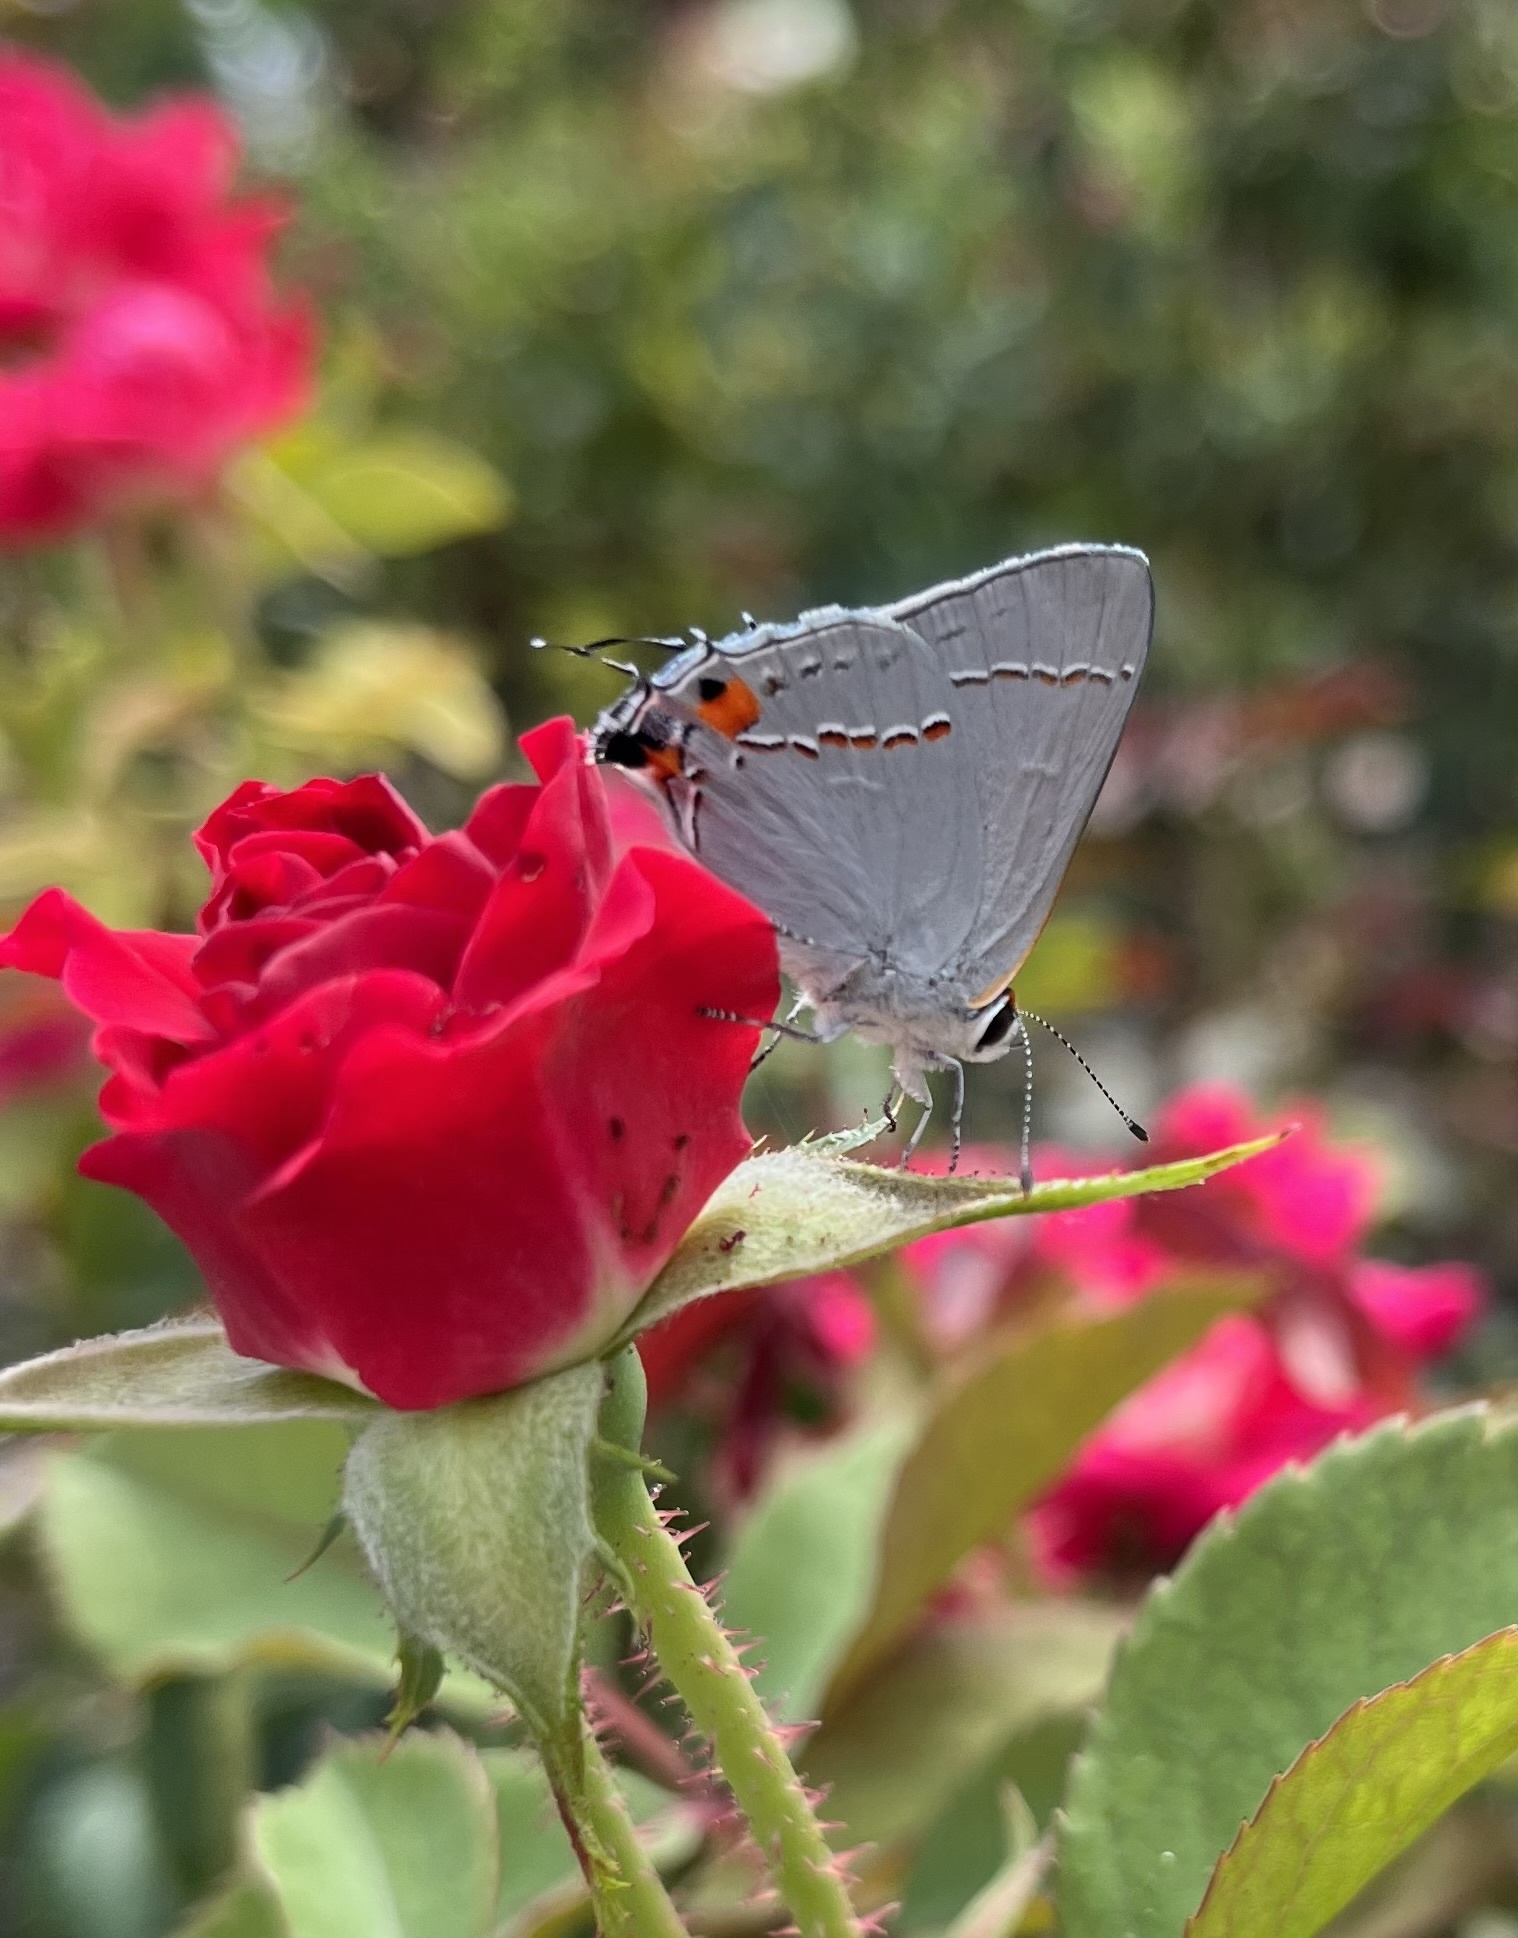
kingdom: Animalia
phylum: Arthropoda
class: Insecta
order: Lepidoptera
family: Lycaenidae
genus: Strymon
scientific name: Strymon melinus
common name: Gray hairstreak
